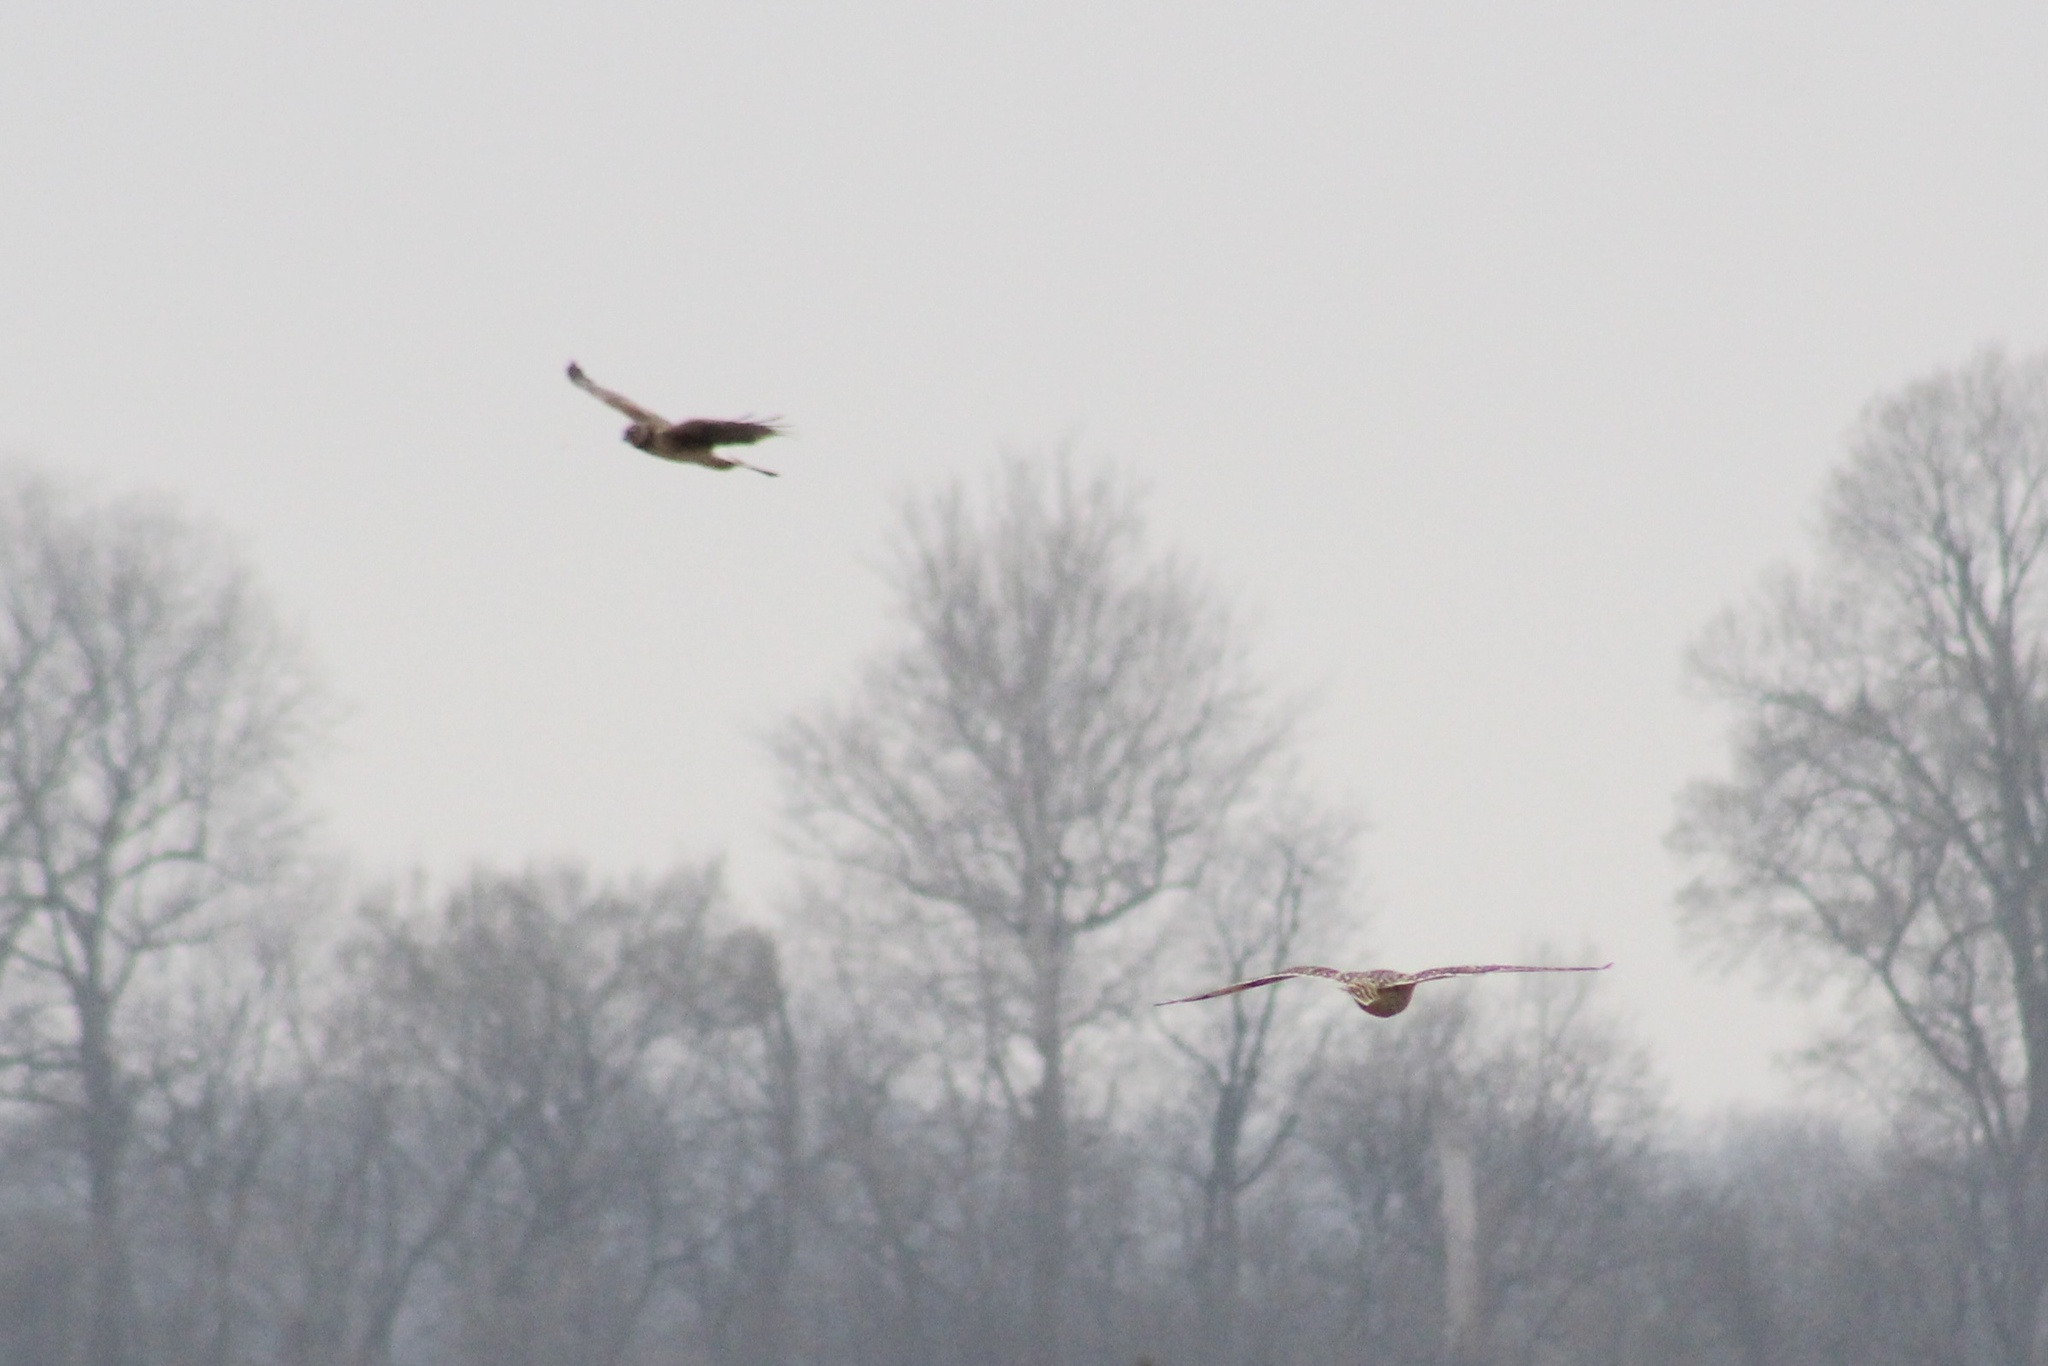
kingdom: Animalia
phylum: Chordata
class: Aves
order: Accipitriformes
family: Accipitridae
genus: Circus
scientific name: Circus cyaneus
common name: Hen harrier
